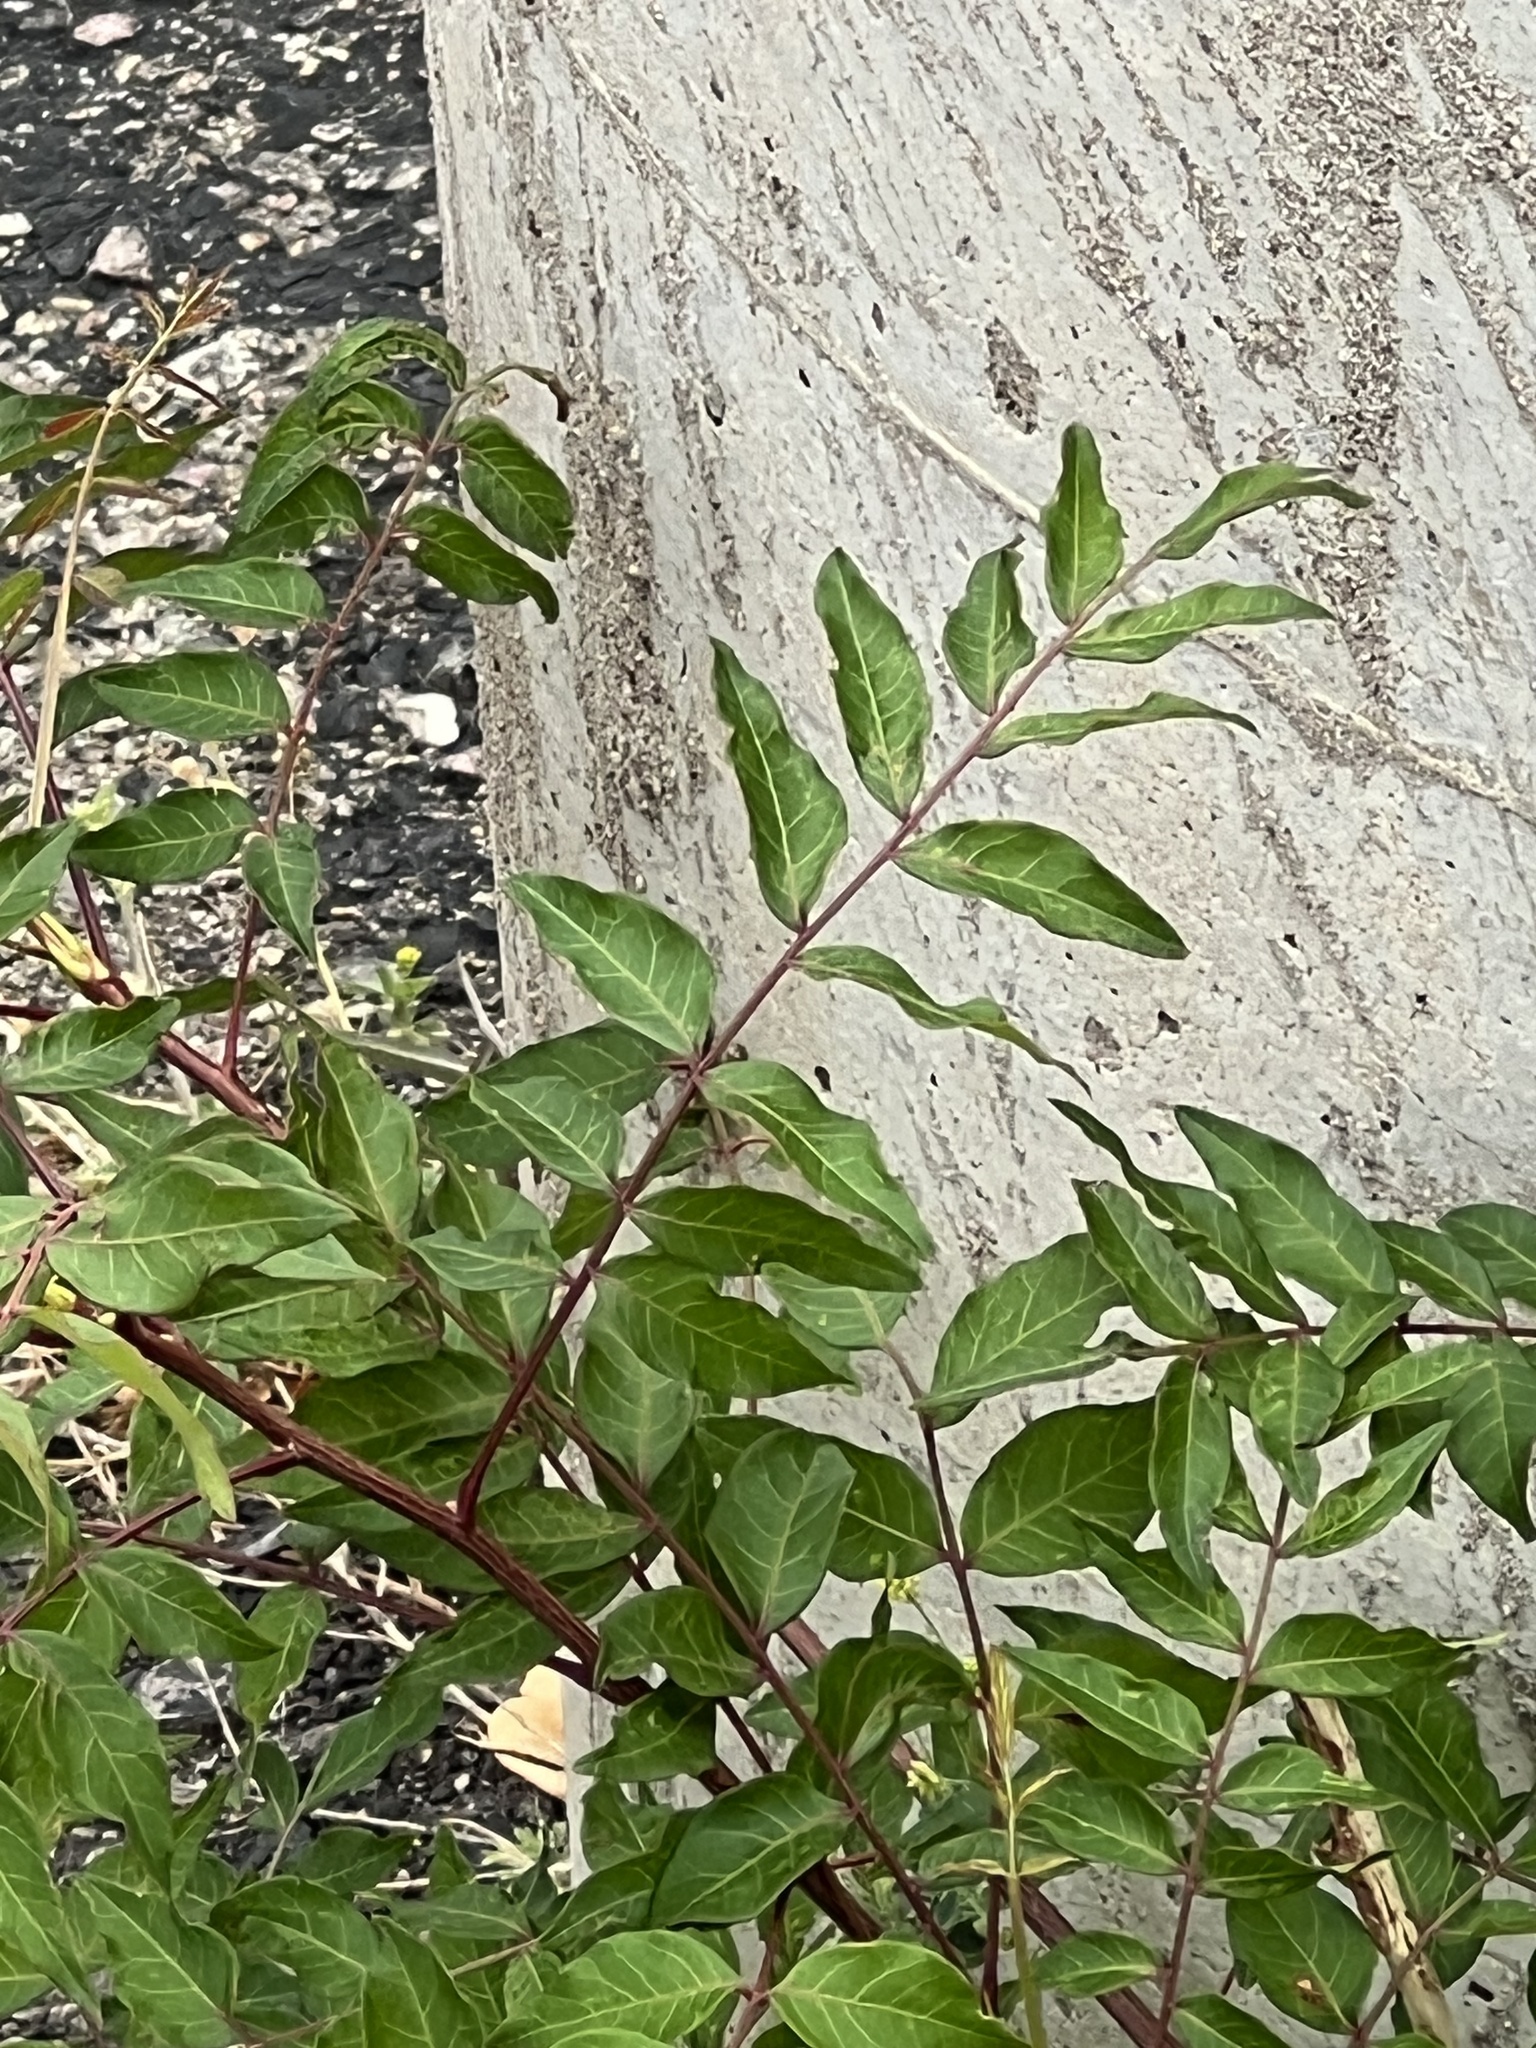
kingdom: Plantae
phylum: Tracheophyta
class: Magnoliopsida
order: Sapindales
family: Simaroubaceae
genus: Ailanthus
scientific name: Ailanthus altissima
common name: Tree-of-heaven
